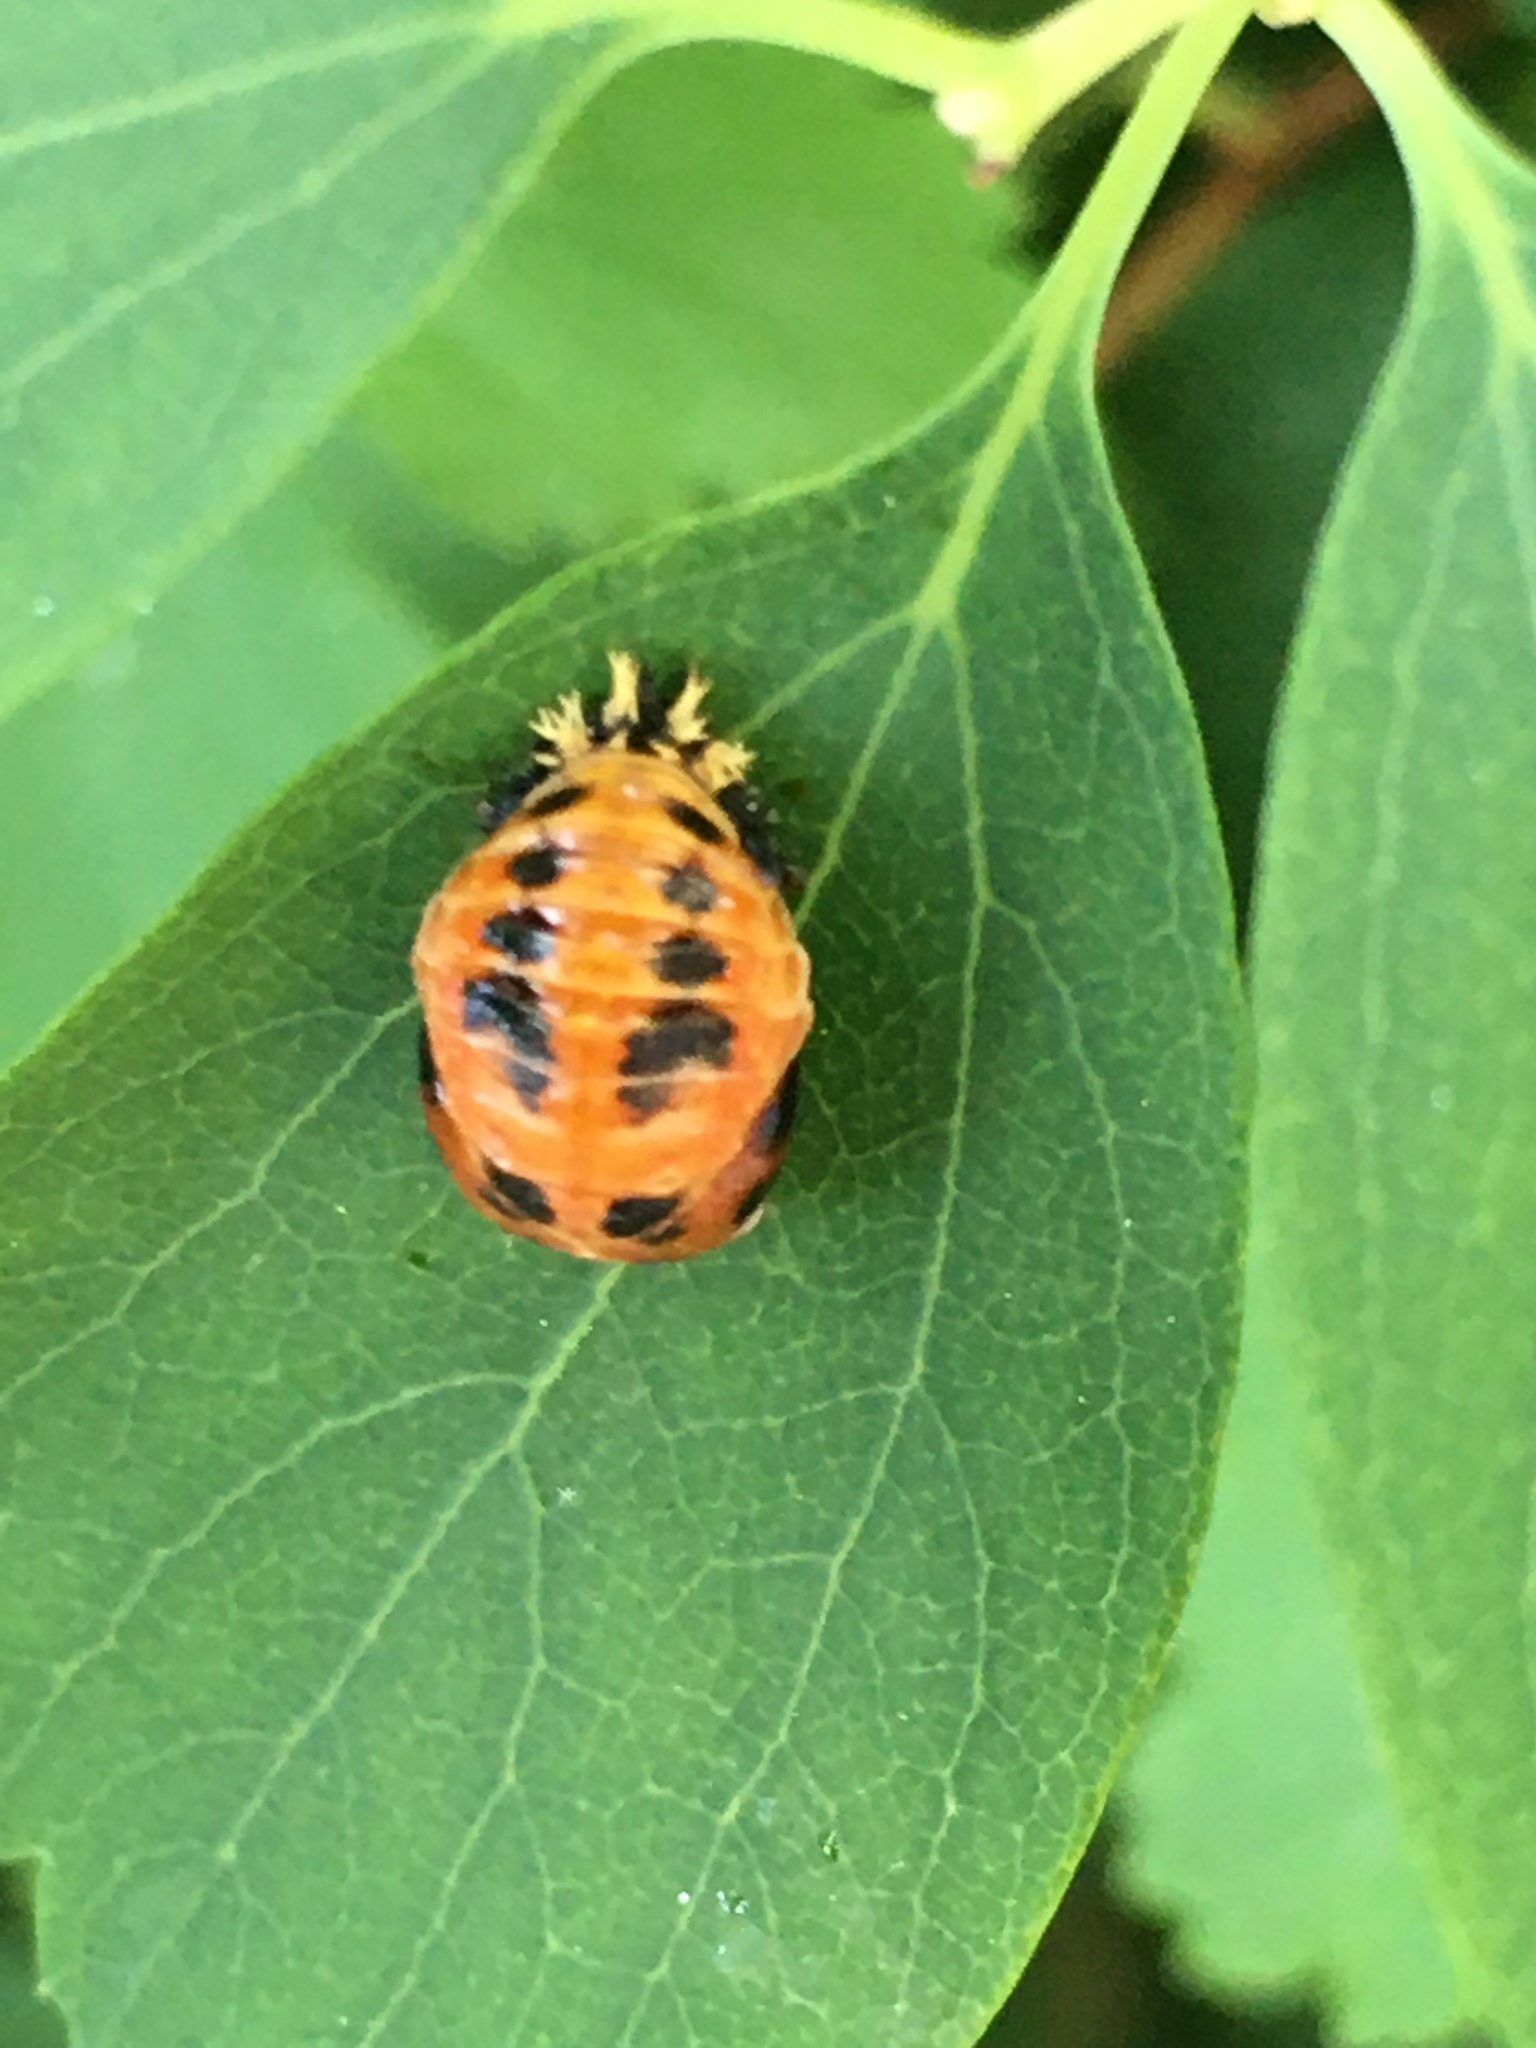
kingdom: Animalia
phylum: Arthropoda
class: Insecta
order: Coleoptera
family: Coccinellidae
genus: Harmonia
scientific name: Harmonia axyridis
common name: Harlequin ladybird
